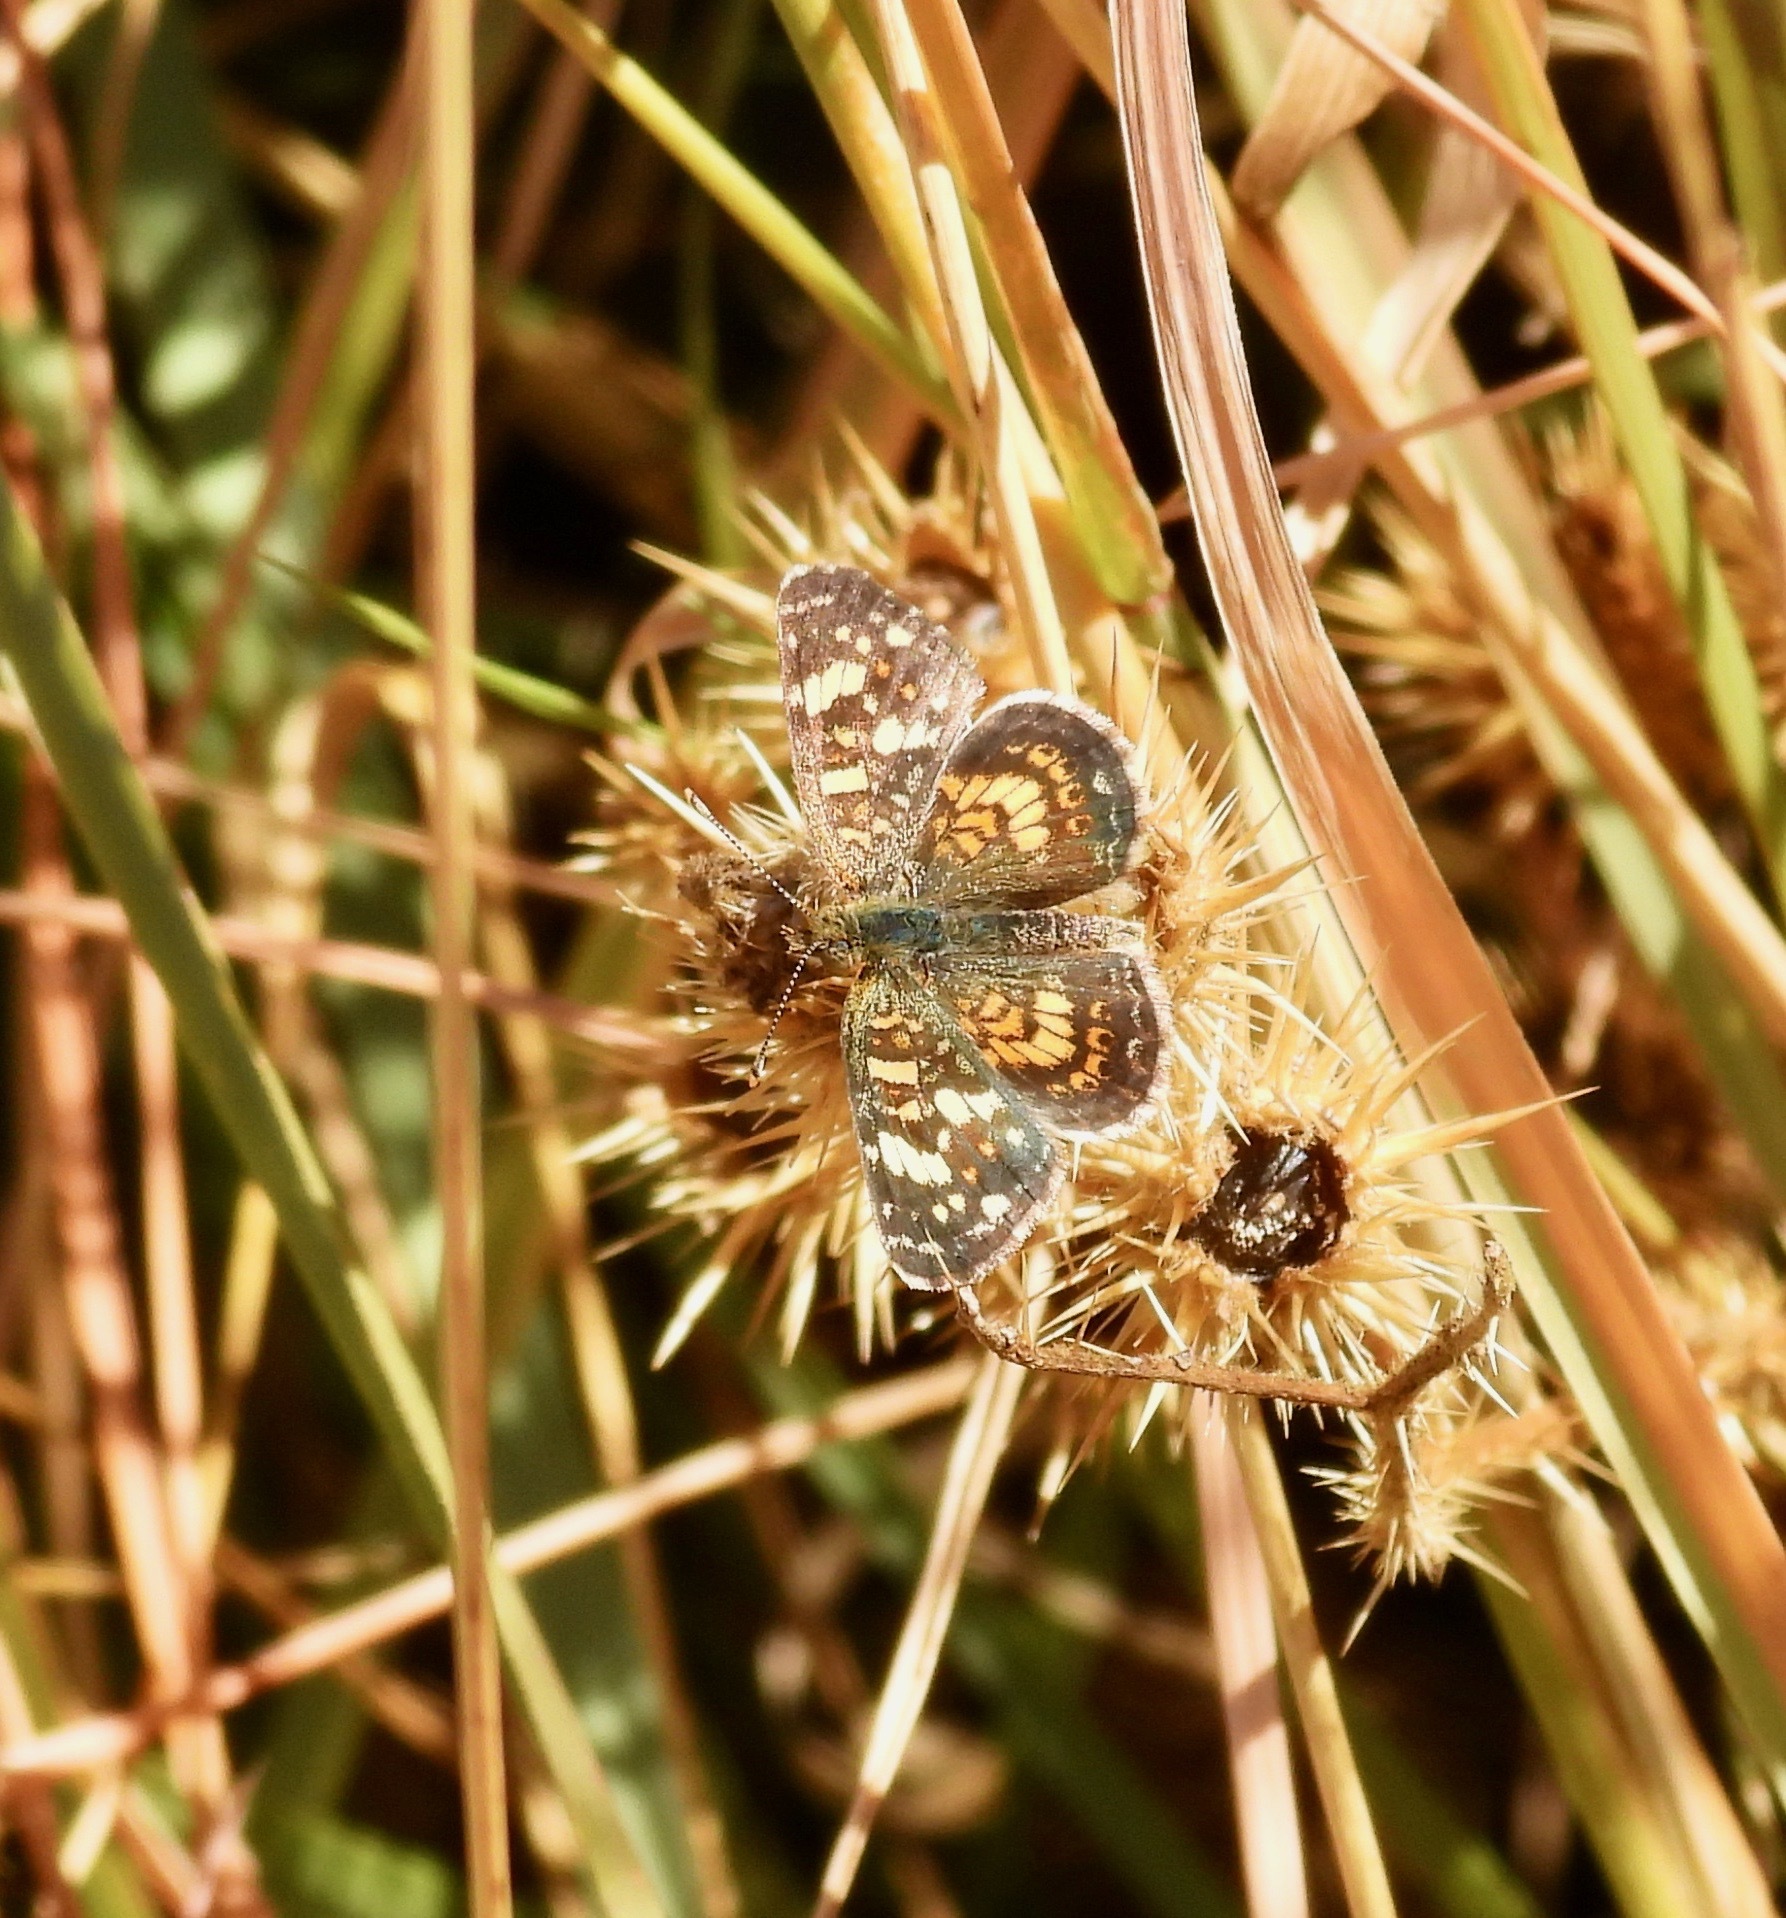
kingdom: Animalia
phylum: Arthropoda
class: Insecta
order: Lepidoptera
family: Nymphalidae
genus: Phyciodes
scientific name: Phyciodes picta
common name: Painted crescent
